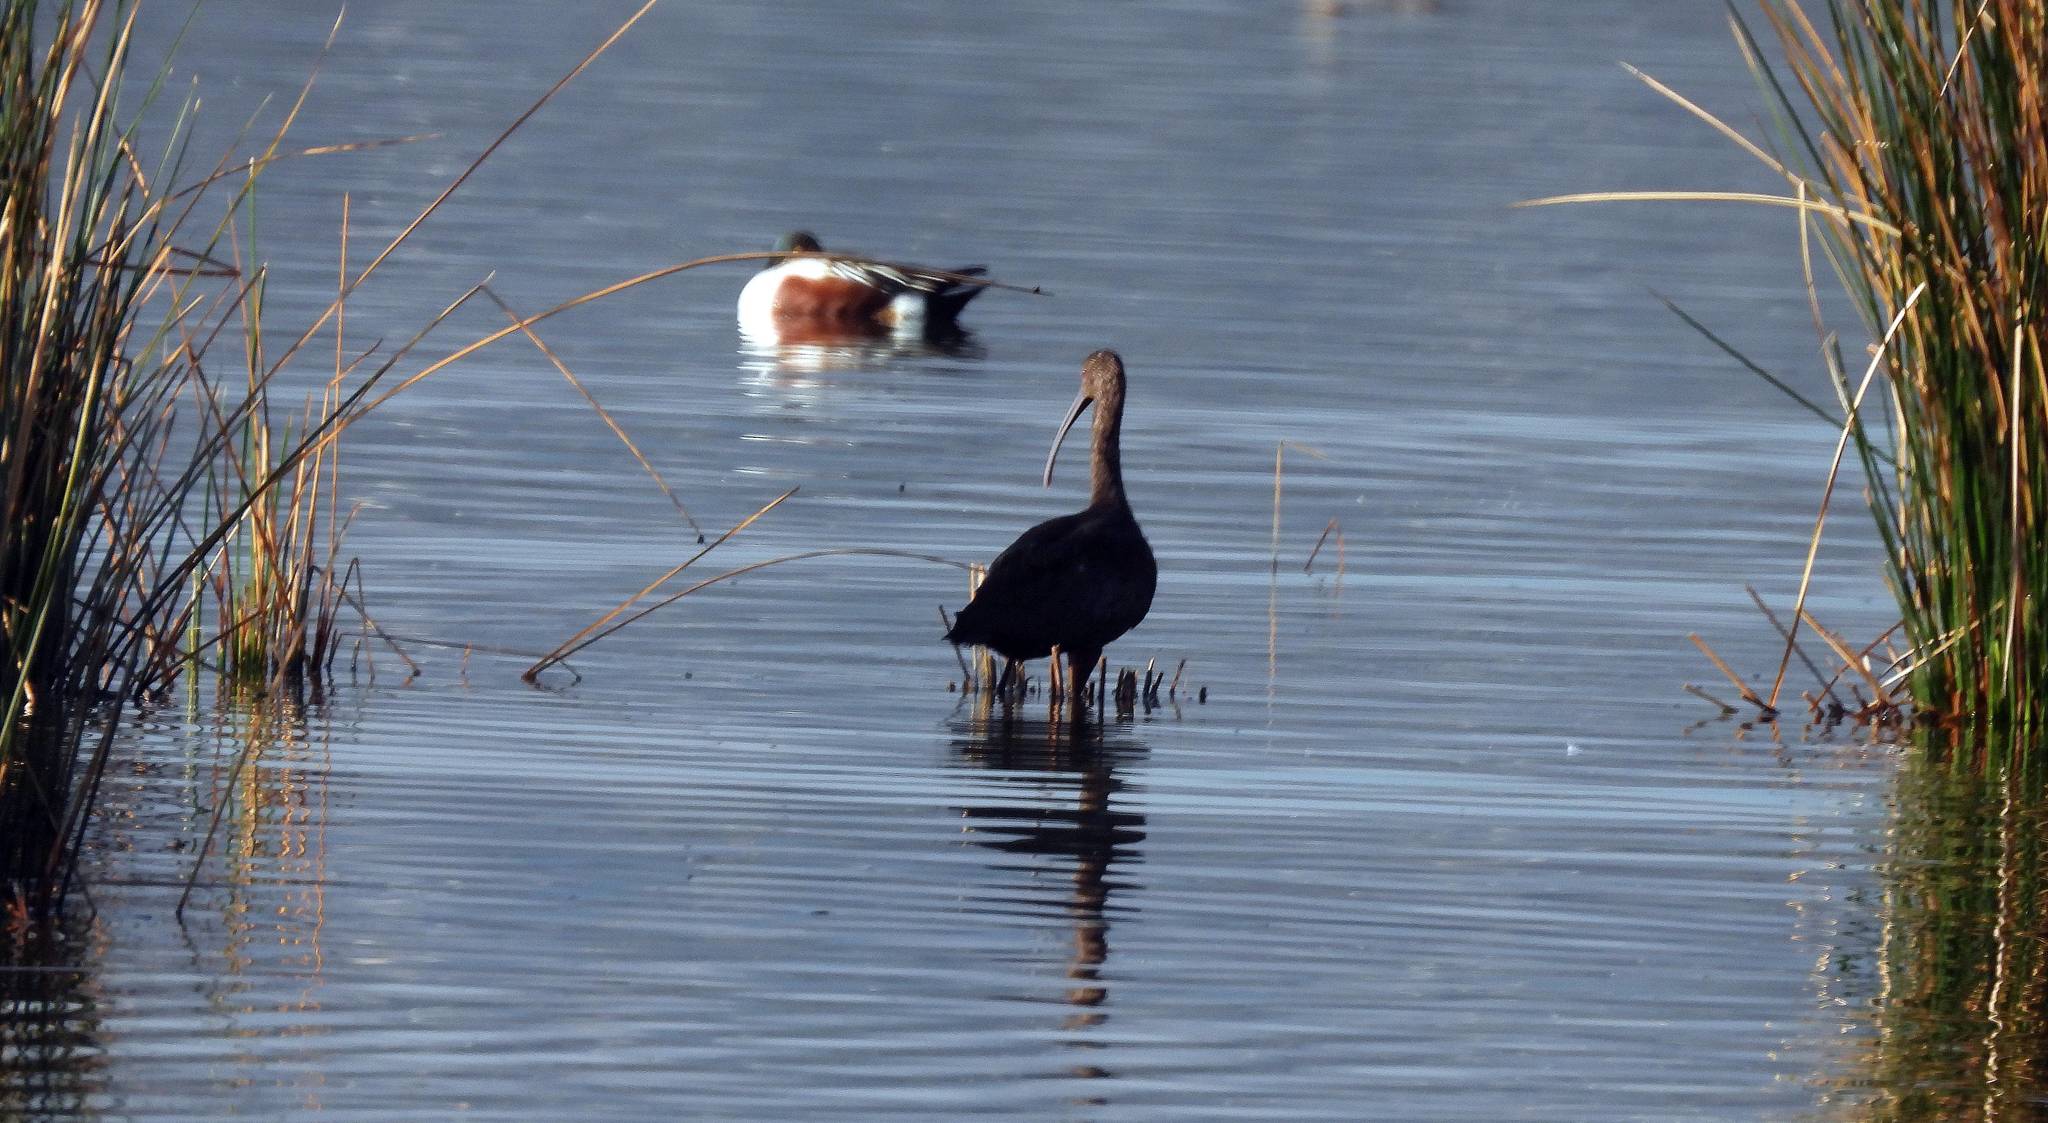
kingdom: Animalia
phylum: Chordata
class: Aves
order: Anseriformes
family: Anatidae
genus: Spatula
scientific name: Spatula clypeata
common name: Northern shoveler
